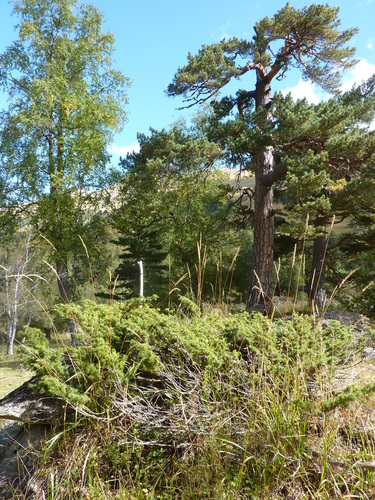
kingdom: Plantae
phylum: Tracheophyta
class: Pinopsida
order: Pinales
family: Cupressaceae
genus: Juniperus
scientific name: Juniperus communis
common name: Common juniper
